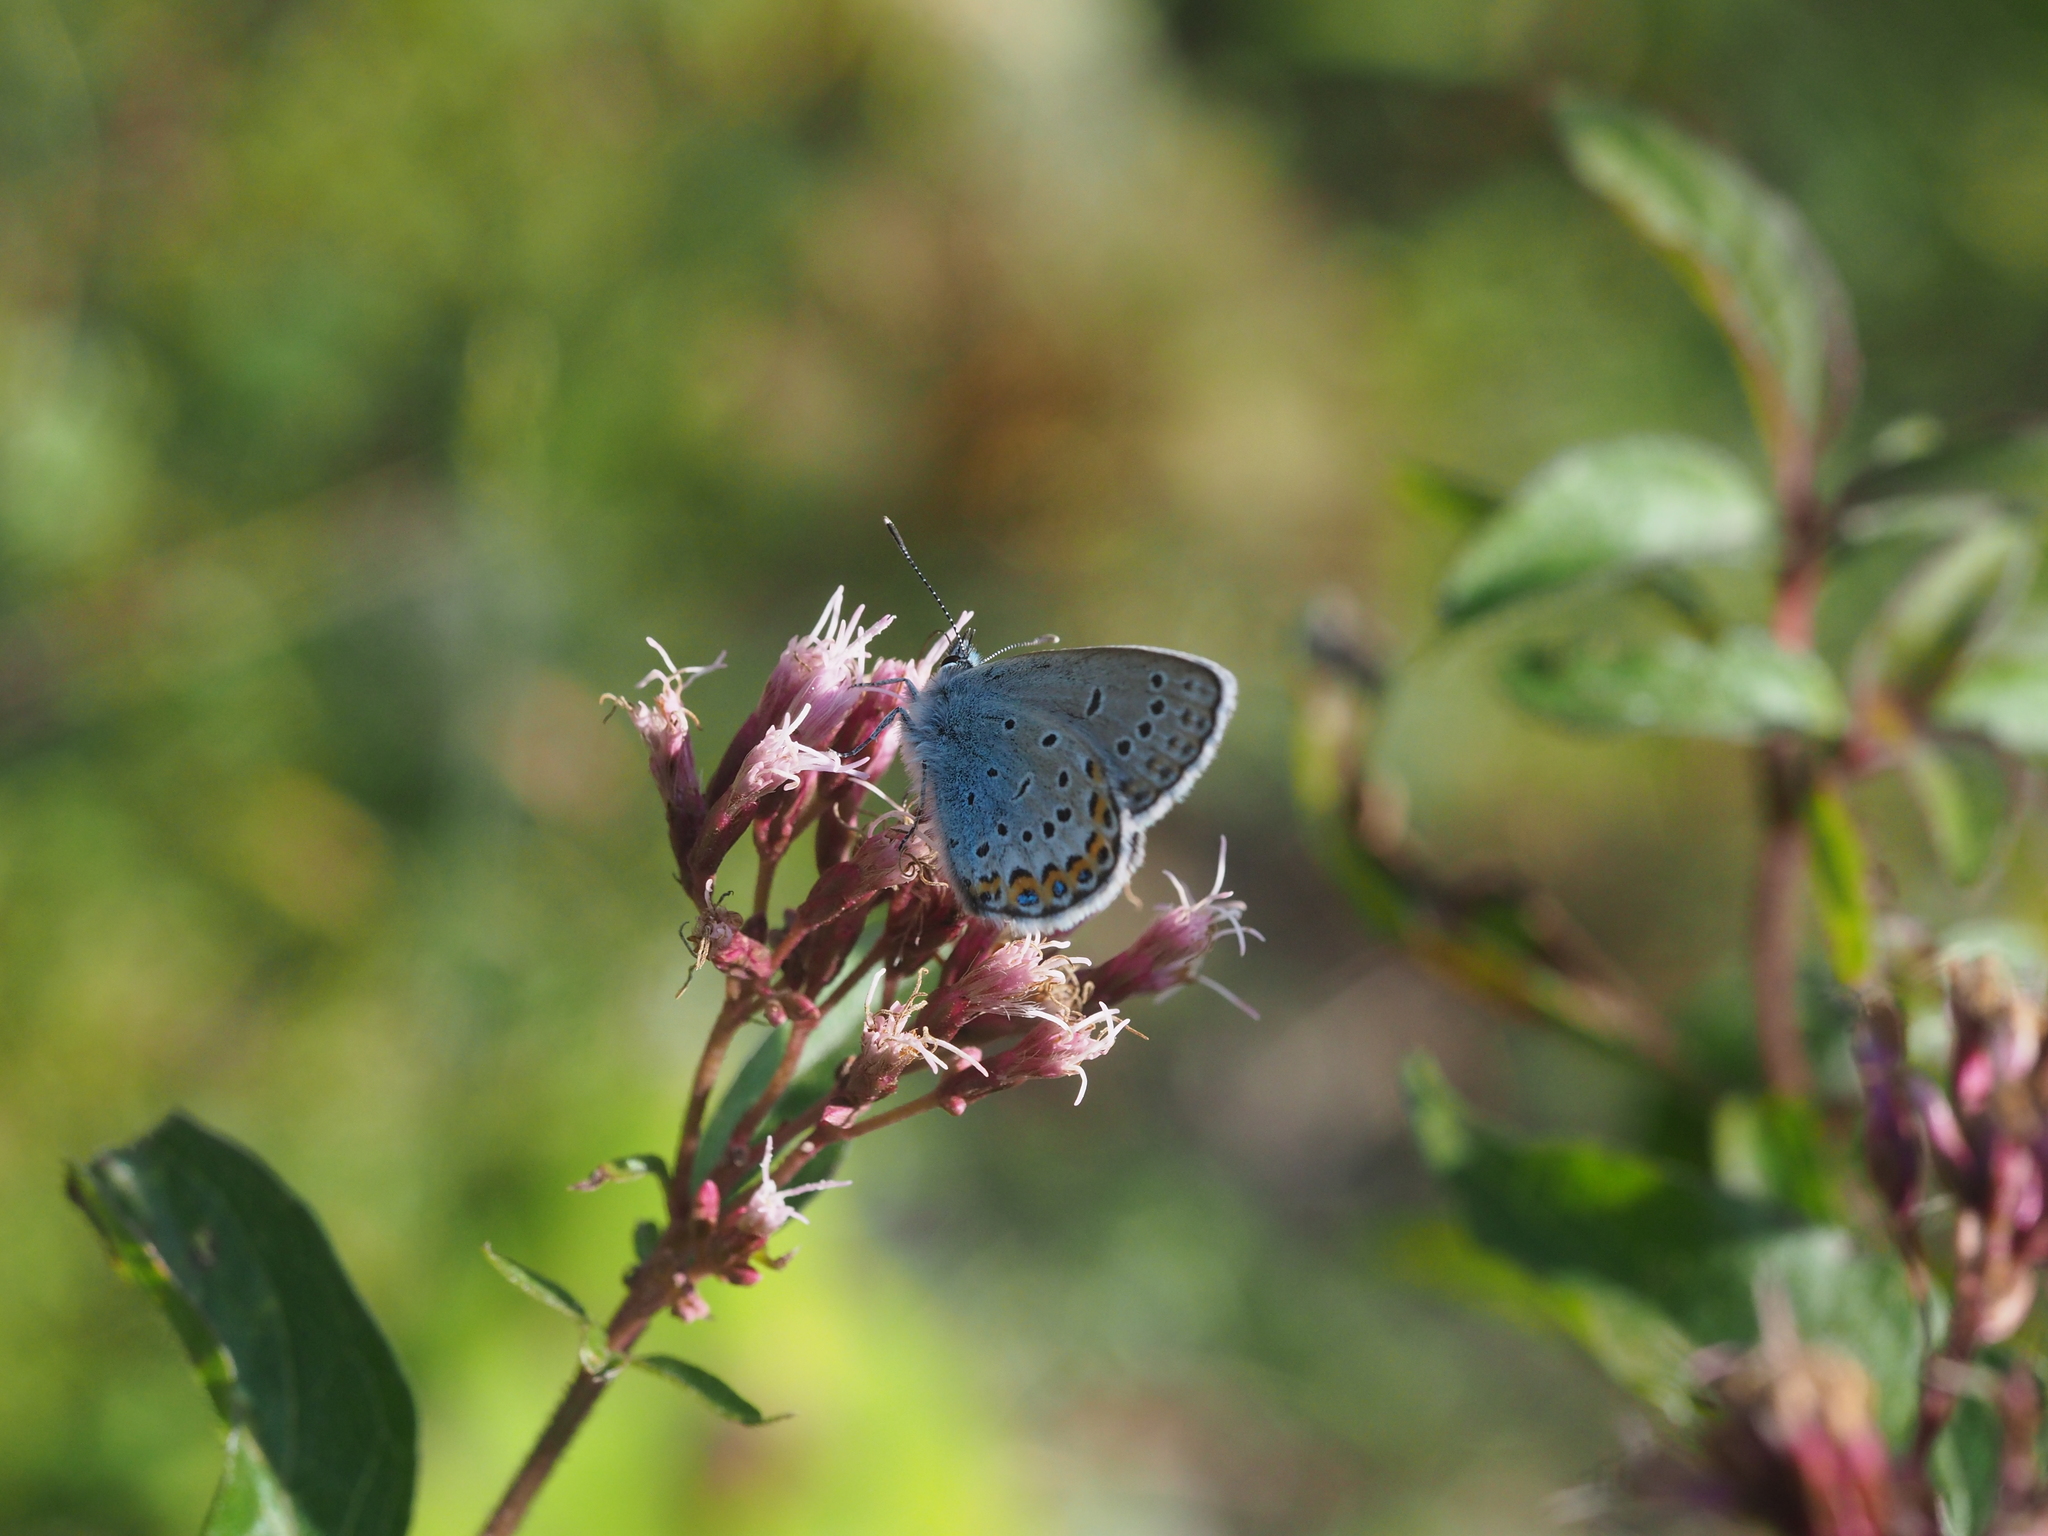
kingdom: Animalia
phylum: Arthropoda
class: Insecta
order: Lepidoptera
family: Lycaenidae
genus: Lycaeides
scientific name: Lycaeides idas
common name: Northern blue
